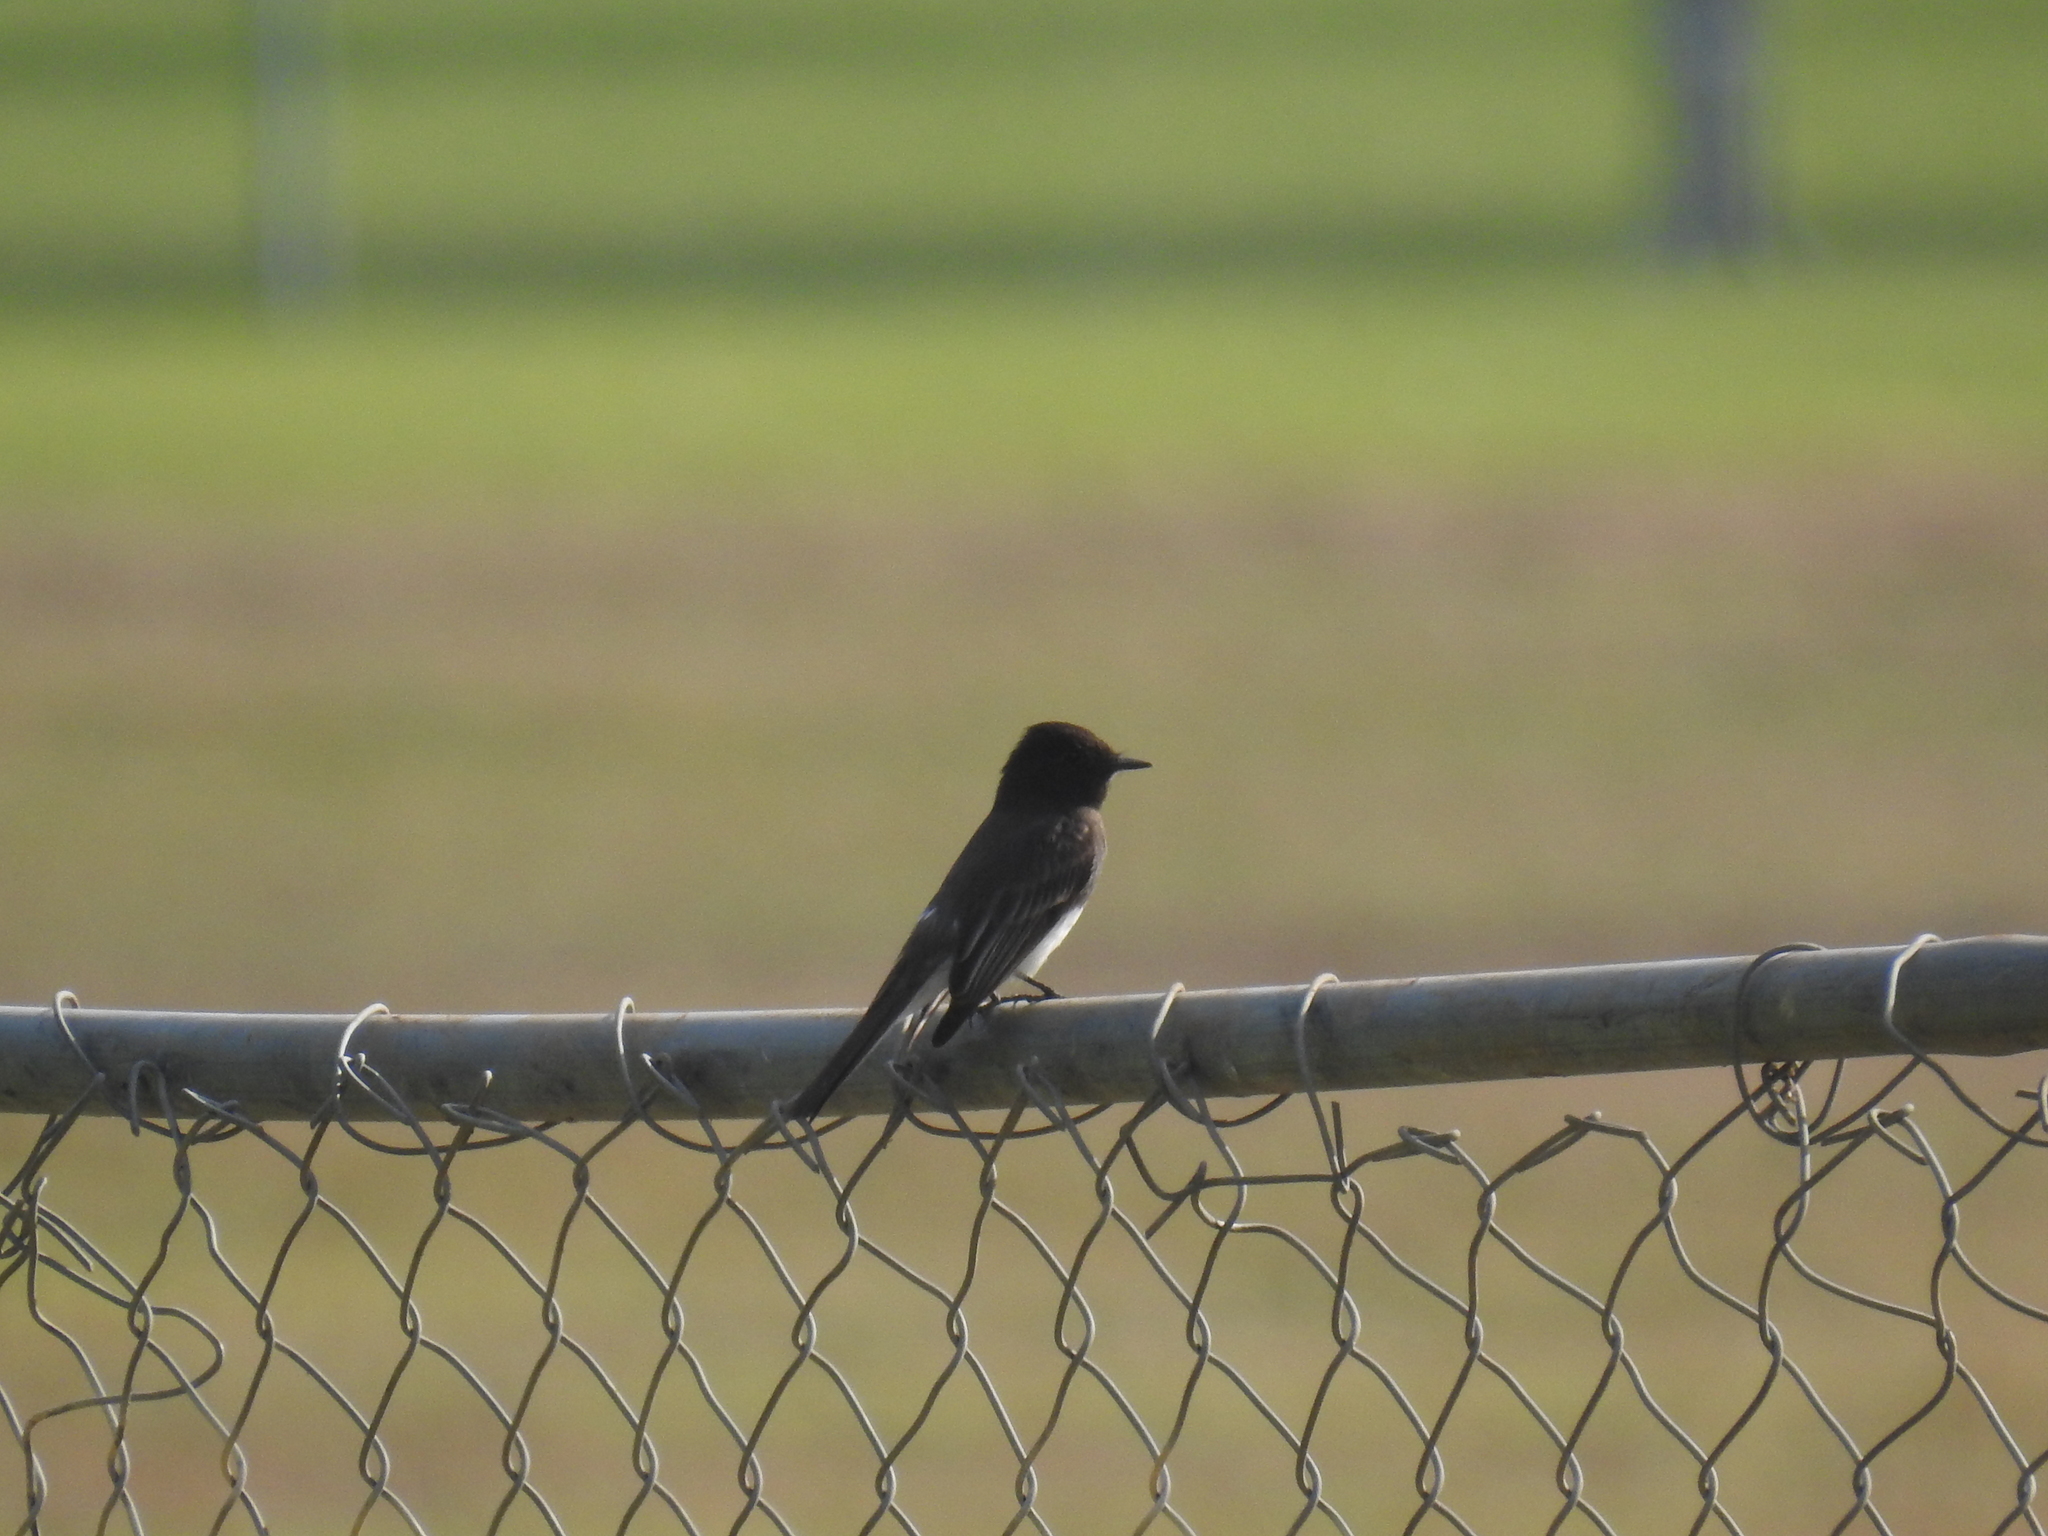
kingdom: Animalia
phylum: Chordata
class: Aves
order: Passeriformes
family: Tyrannidae
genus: Sayornis
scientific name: Sayornis nigricans
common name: Black phoebe
